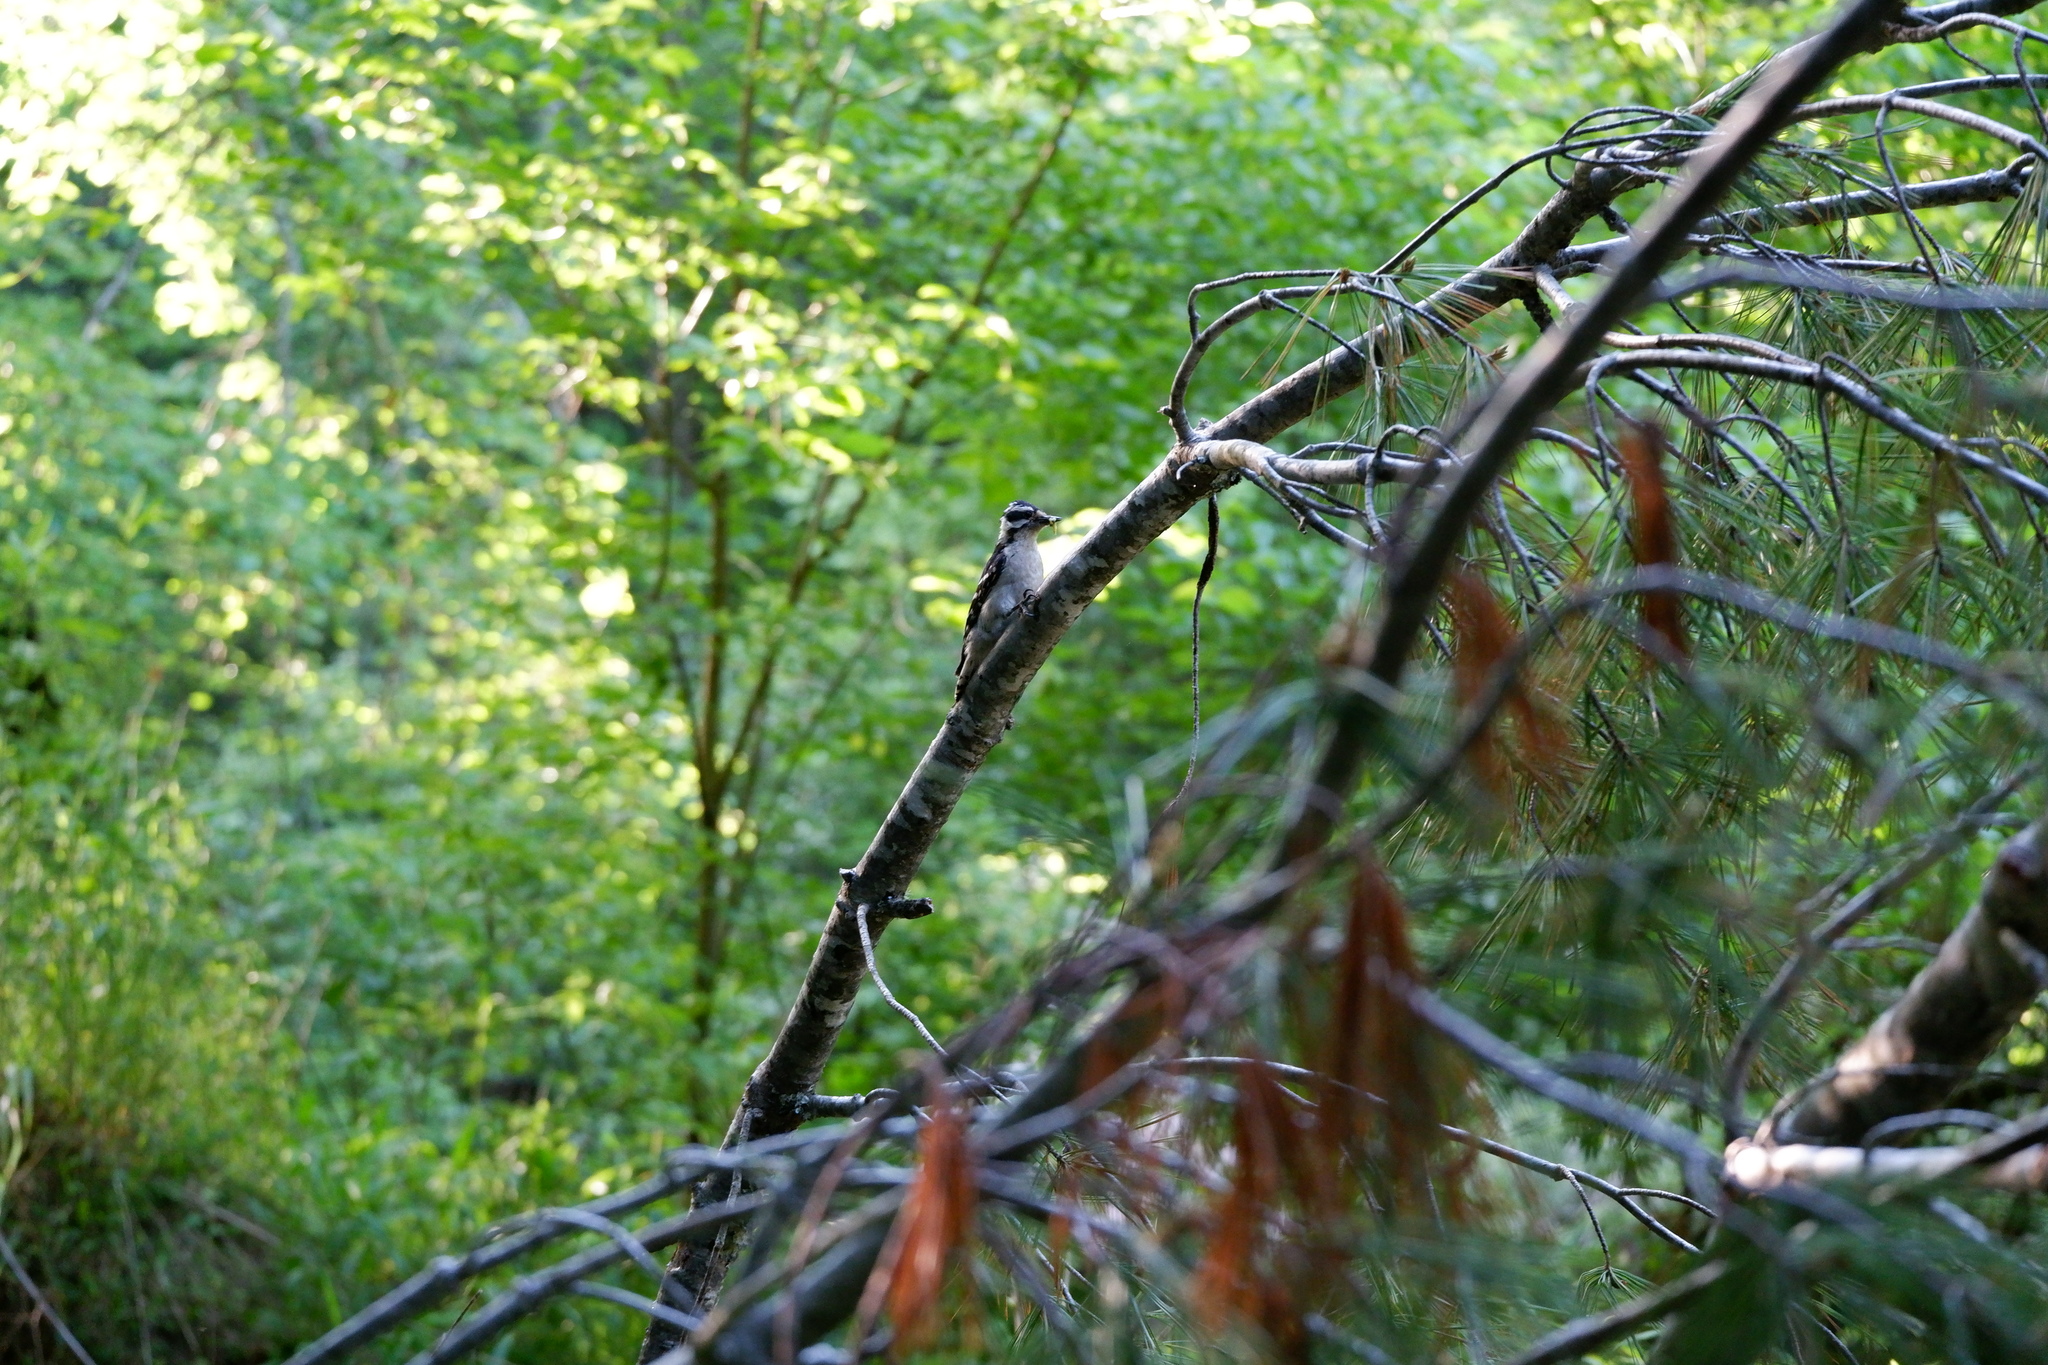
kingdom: Animalia
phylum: Chordata
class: Aves
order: Piciformes
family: Picidae
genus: Dryobates
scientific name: Dryobates pubescens
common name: Downy woodpecker
